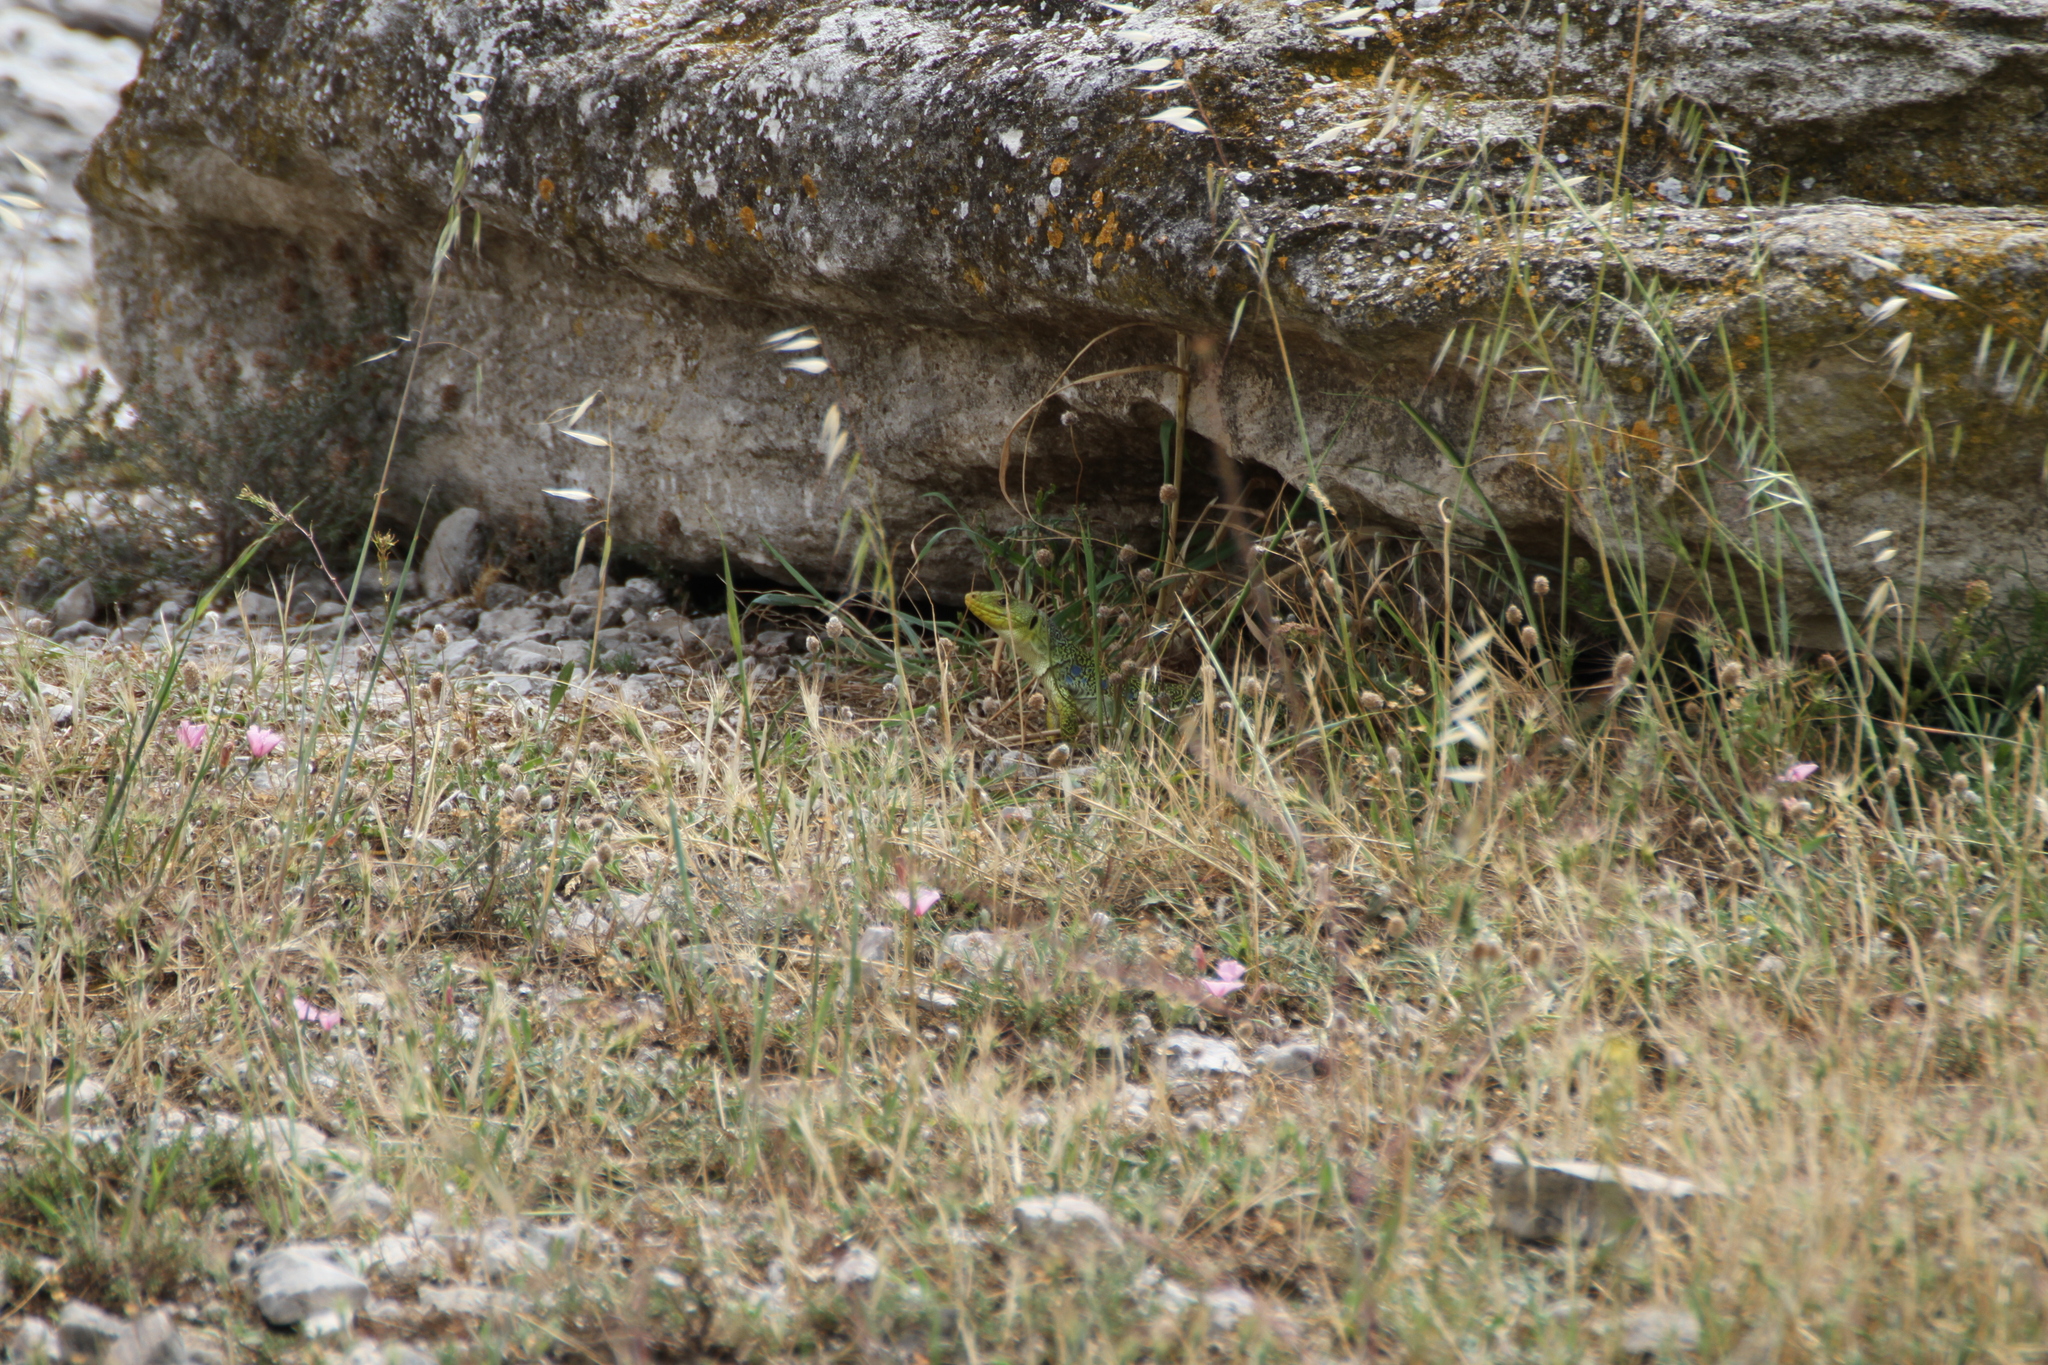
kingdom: Animalia
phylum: Chordata
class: Squamata
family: Lacertidae
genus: Timon
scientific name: Timon lepidus
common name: Ocellated lizard
